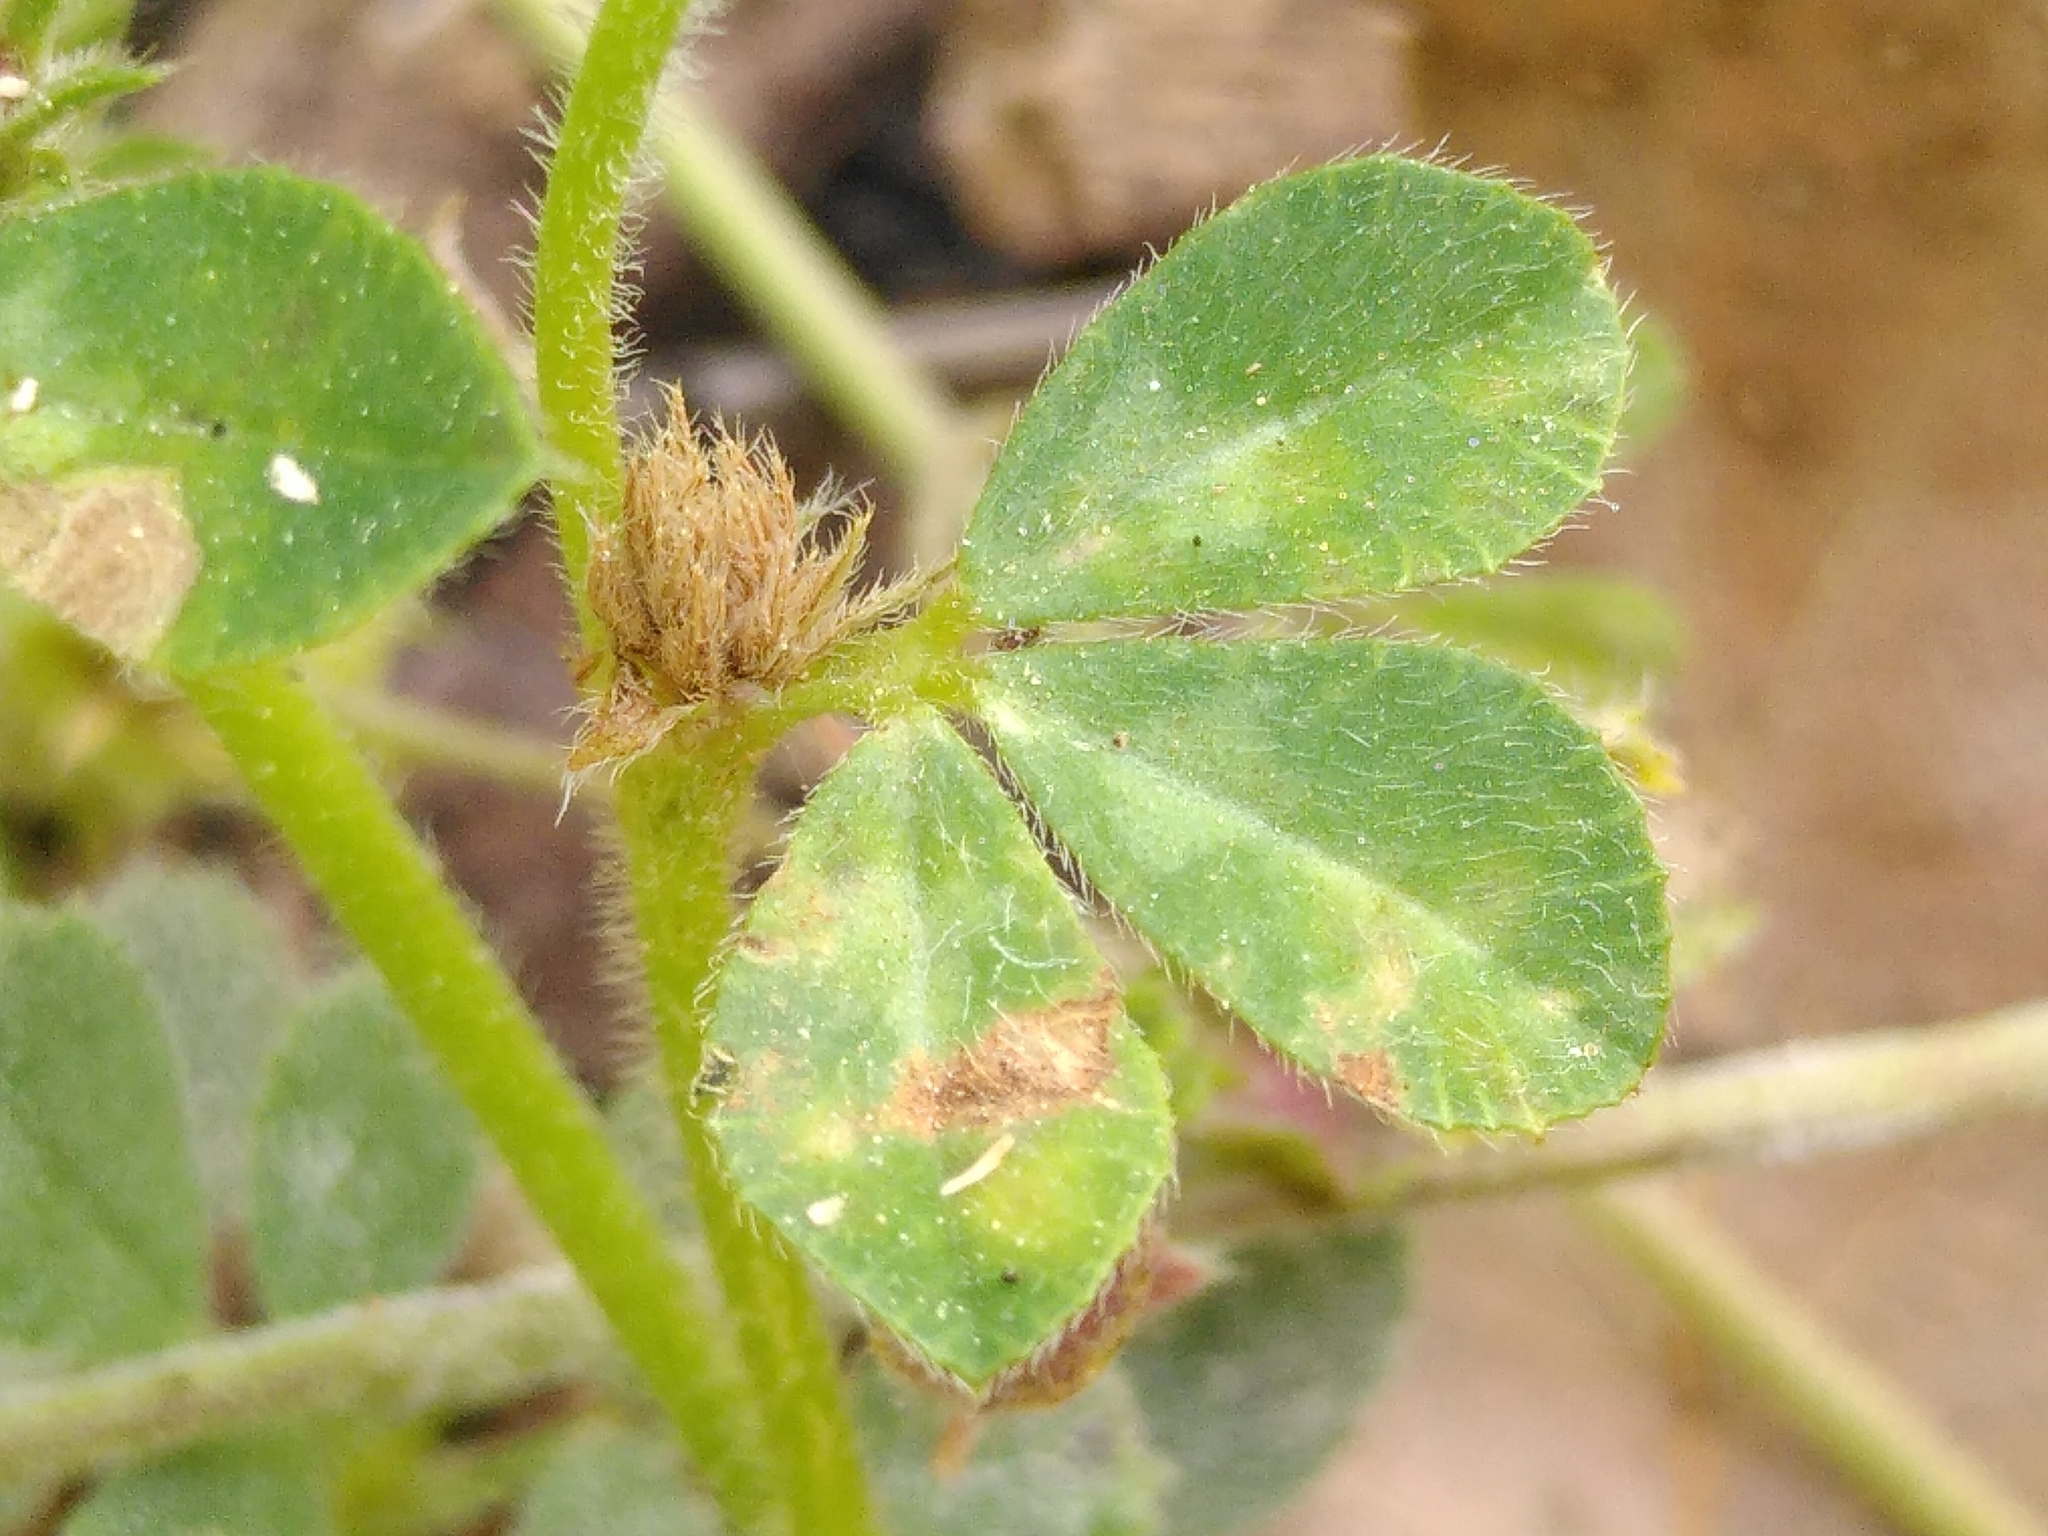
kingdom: Plantae
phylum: Tracheophyta
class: Magnoliopsida
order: Fabales
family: Fabaceae
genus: Trifolium
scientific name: Trifolium scabrum
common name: Rough clover
